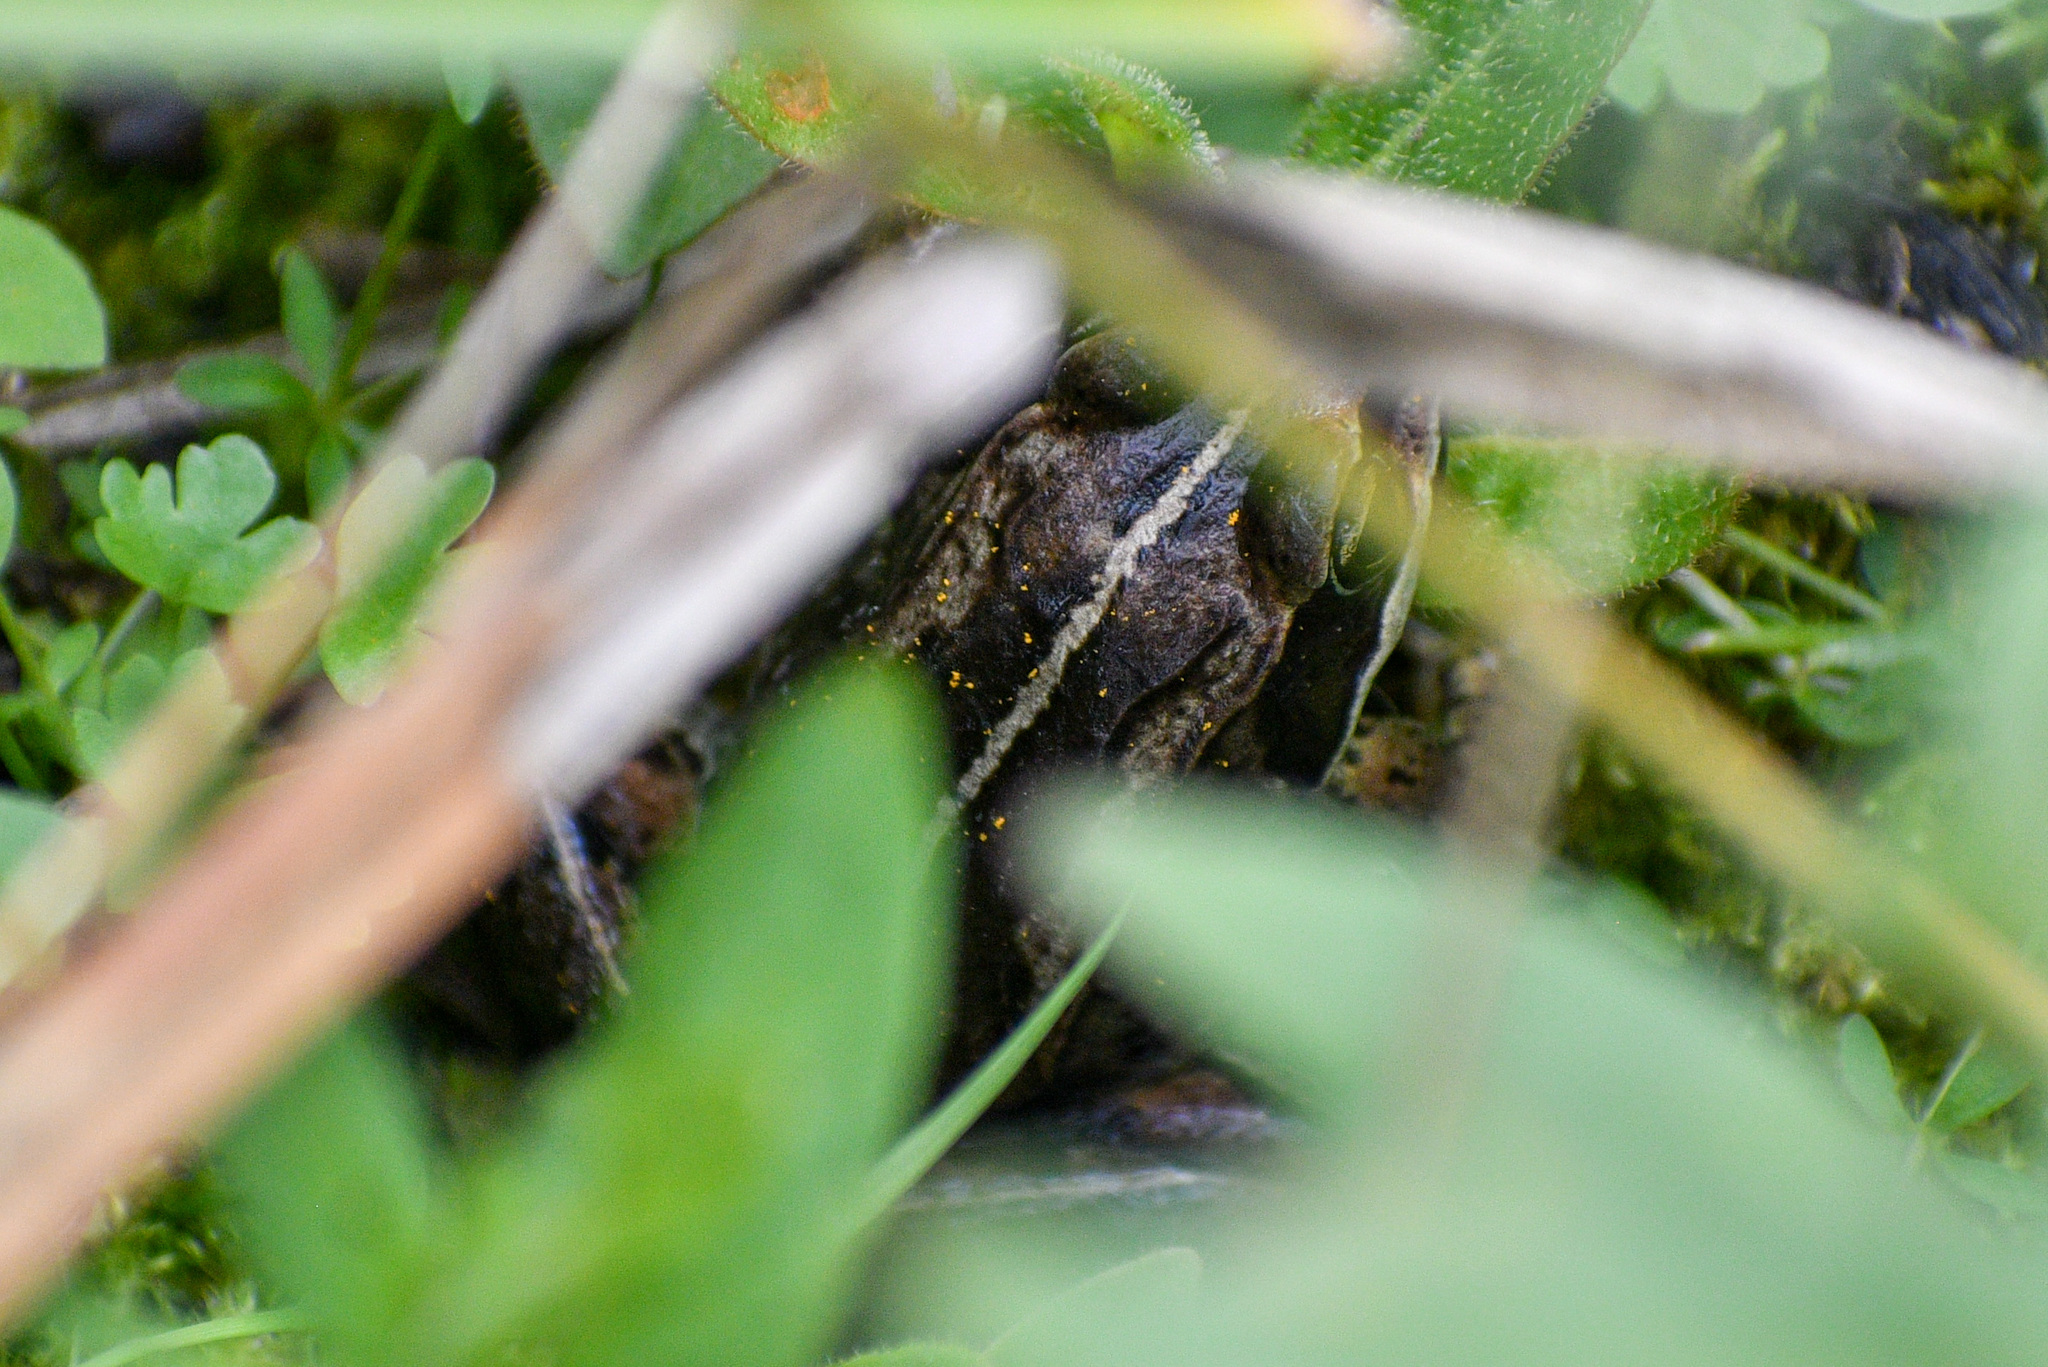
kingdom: Animalia
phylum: Chordata
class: Amphibia
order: Anura
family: Ranidae
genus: Lithobates
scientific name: Lithobates sylvaticus
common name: Wood frog
